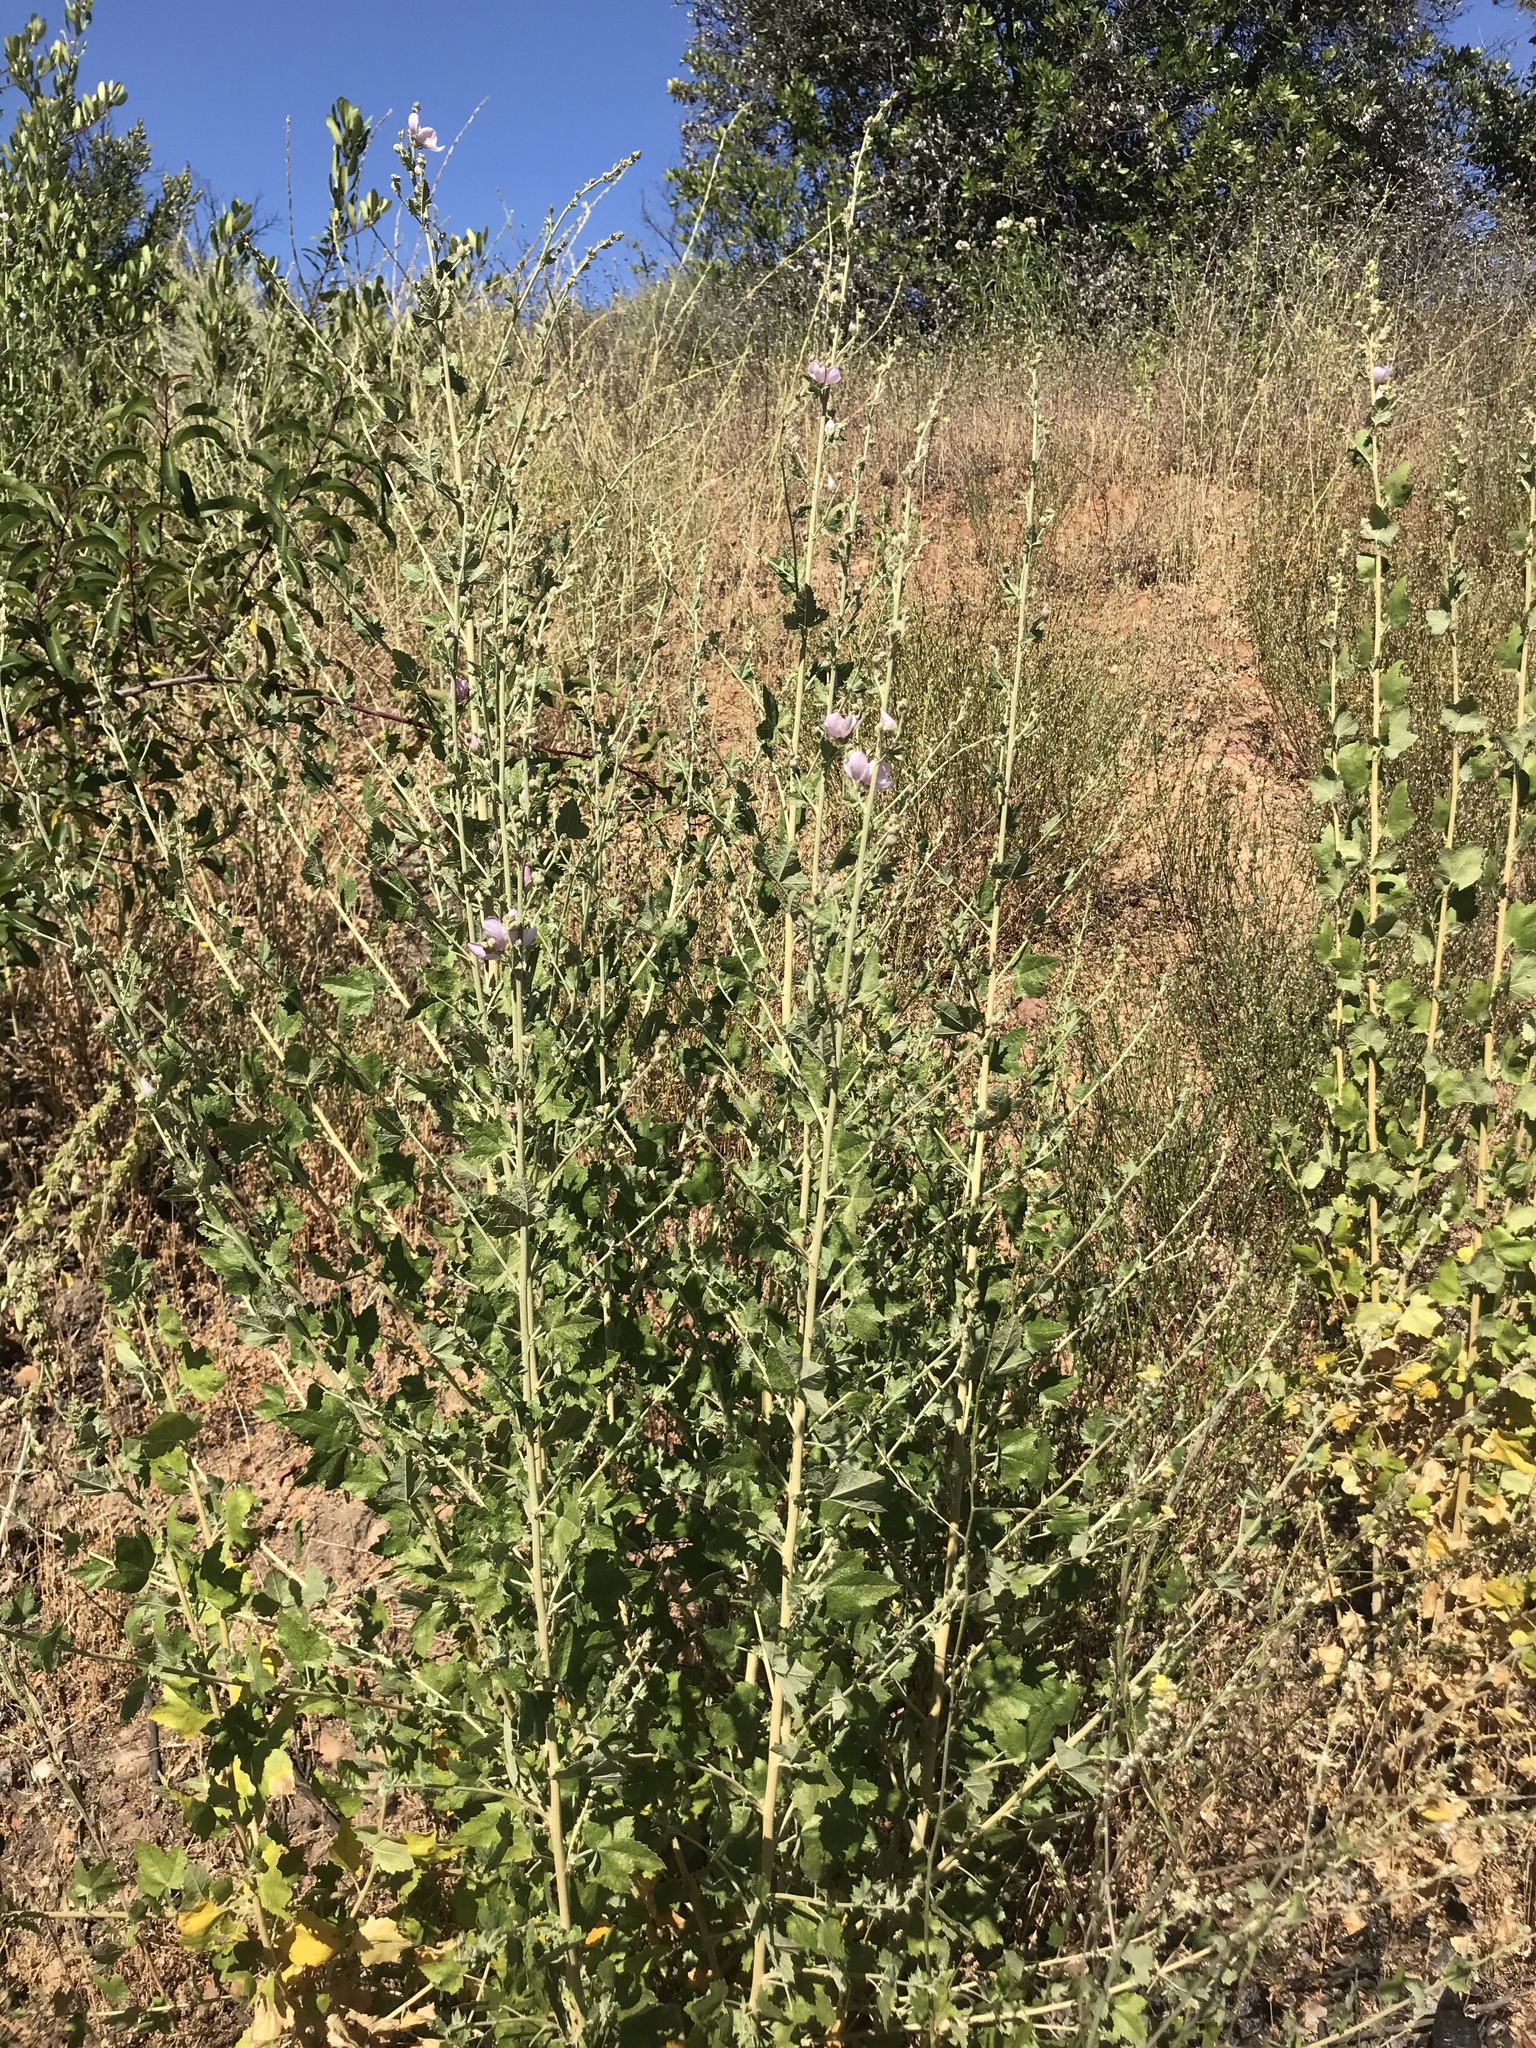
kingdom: Plantae
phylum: Tracheophyta
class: Magnoliopsida
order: Malvales
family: Malvaceae
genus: Malacothamnus
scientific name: Malacothamnus fasciculatus
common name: Sant cruz island bush-mallow
